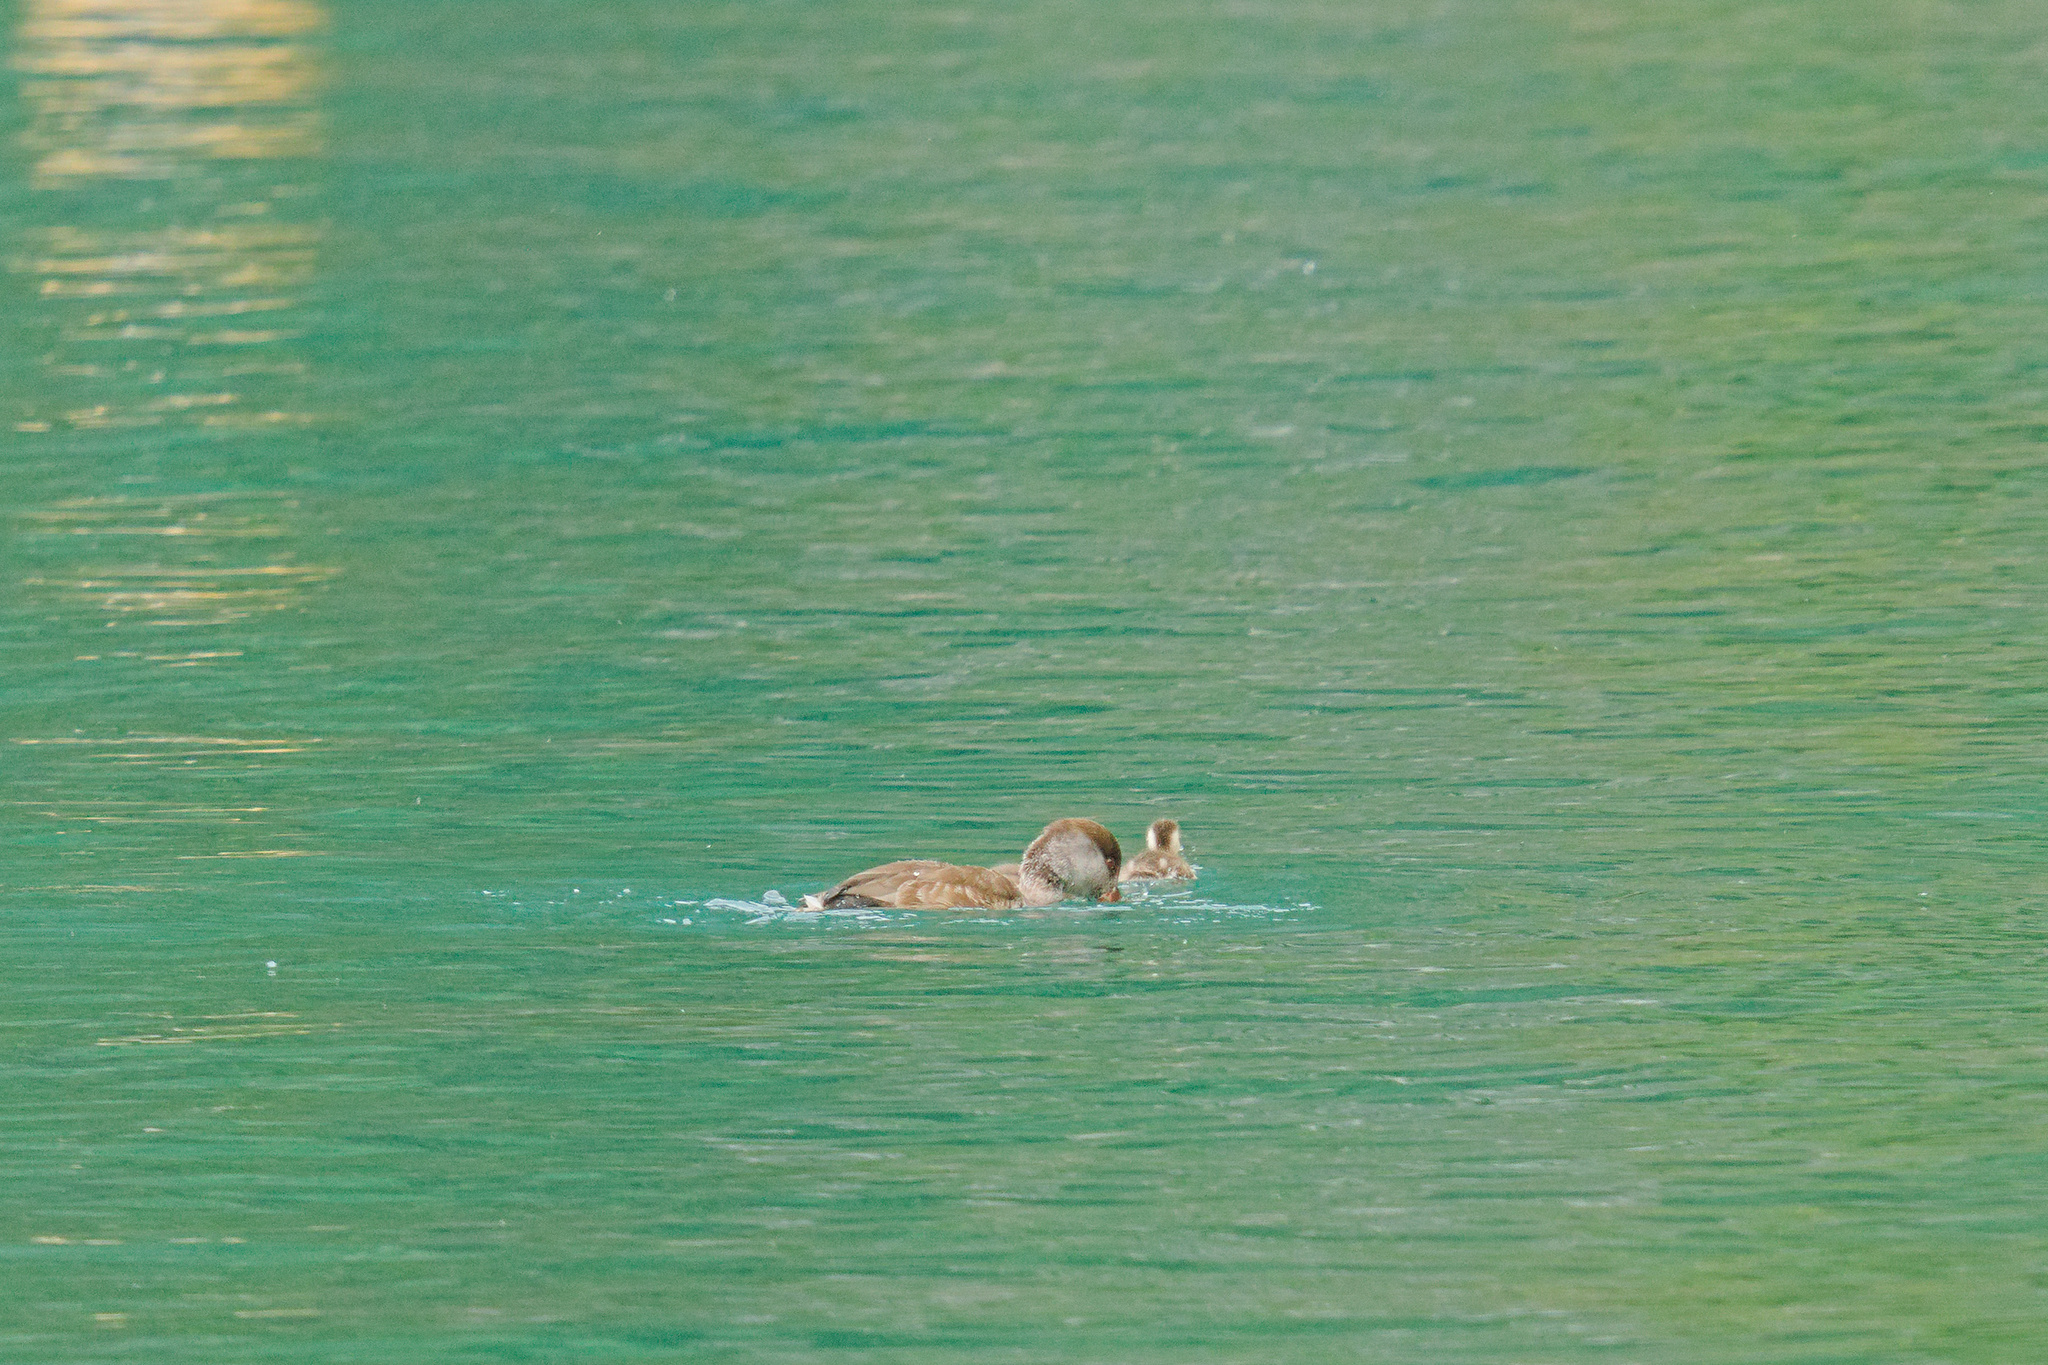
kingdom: Animalia
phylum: Chordata
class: Aves
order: Anseriformes
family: Anatidae
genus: Netta
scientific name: Netta rufina
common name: Red-crested pochard
